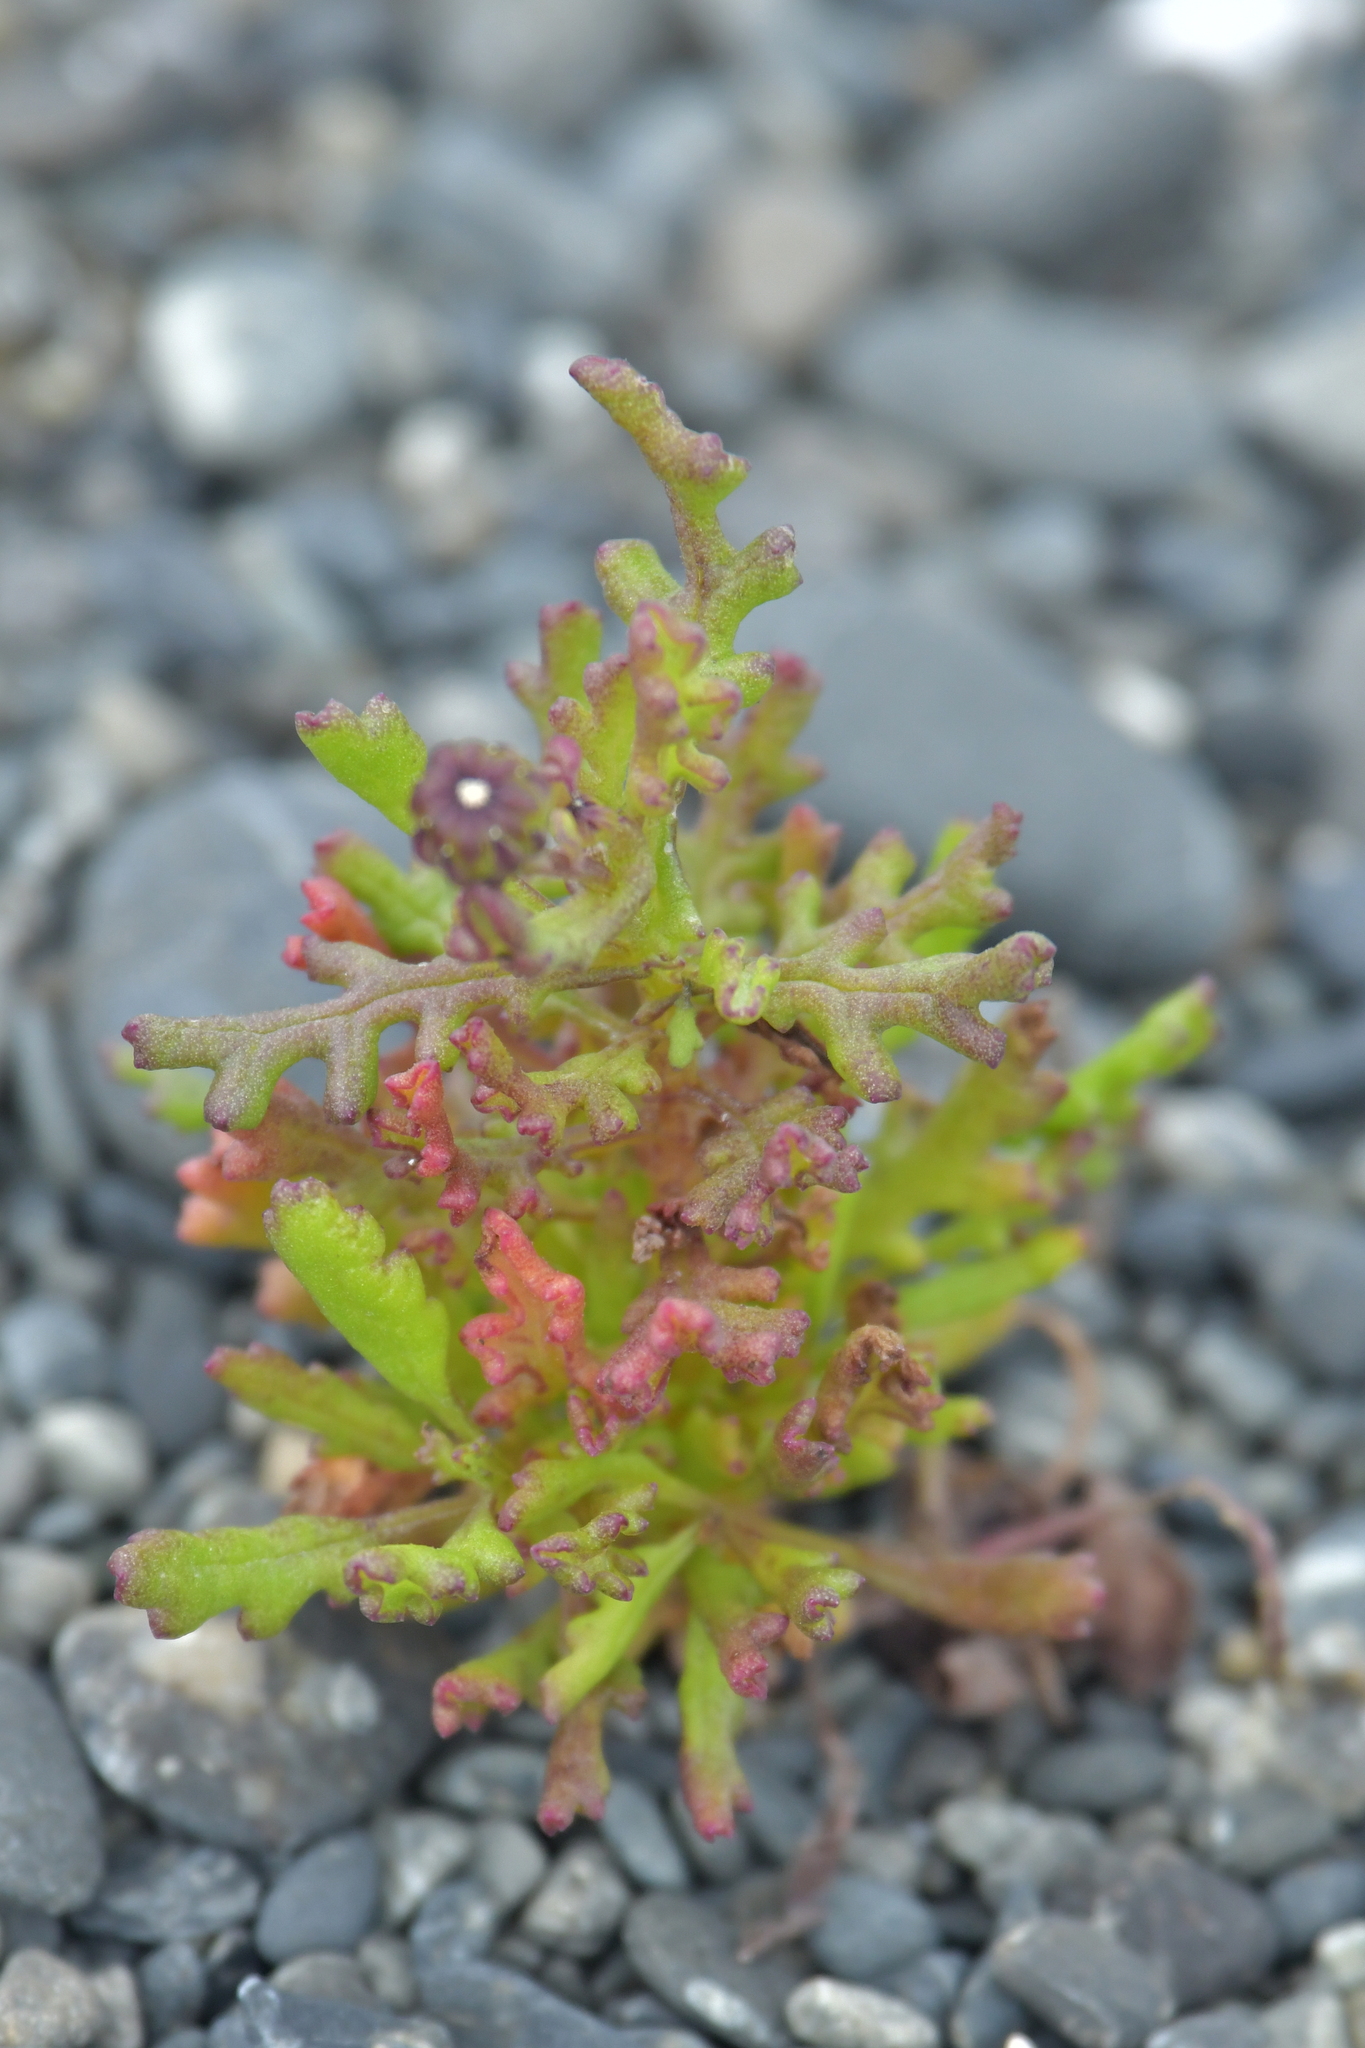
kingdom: Plantae
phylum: Tracheophyta
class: Magnoliopsida
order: Asterales
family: Asteraceae
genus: Senecio
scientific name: Senecio elegans
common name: Purple groundsel
